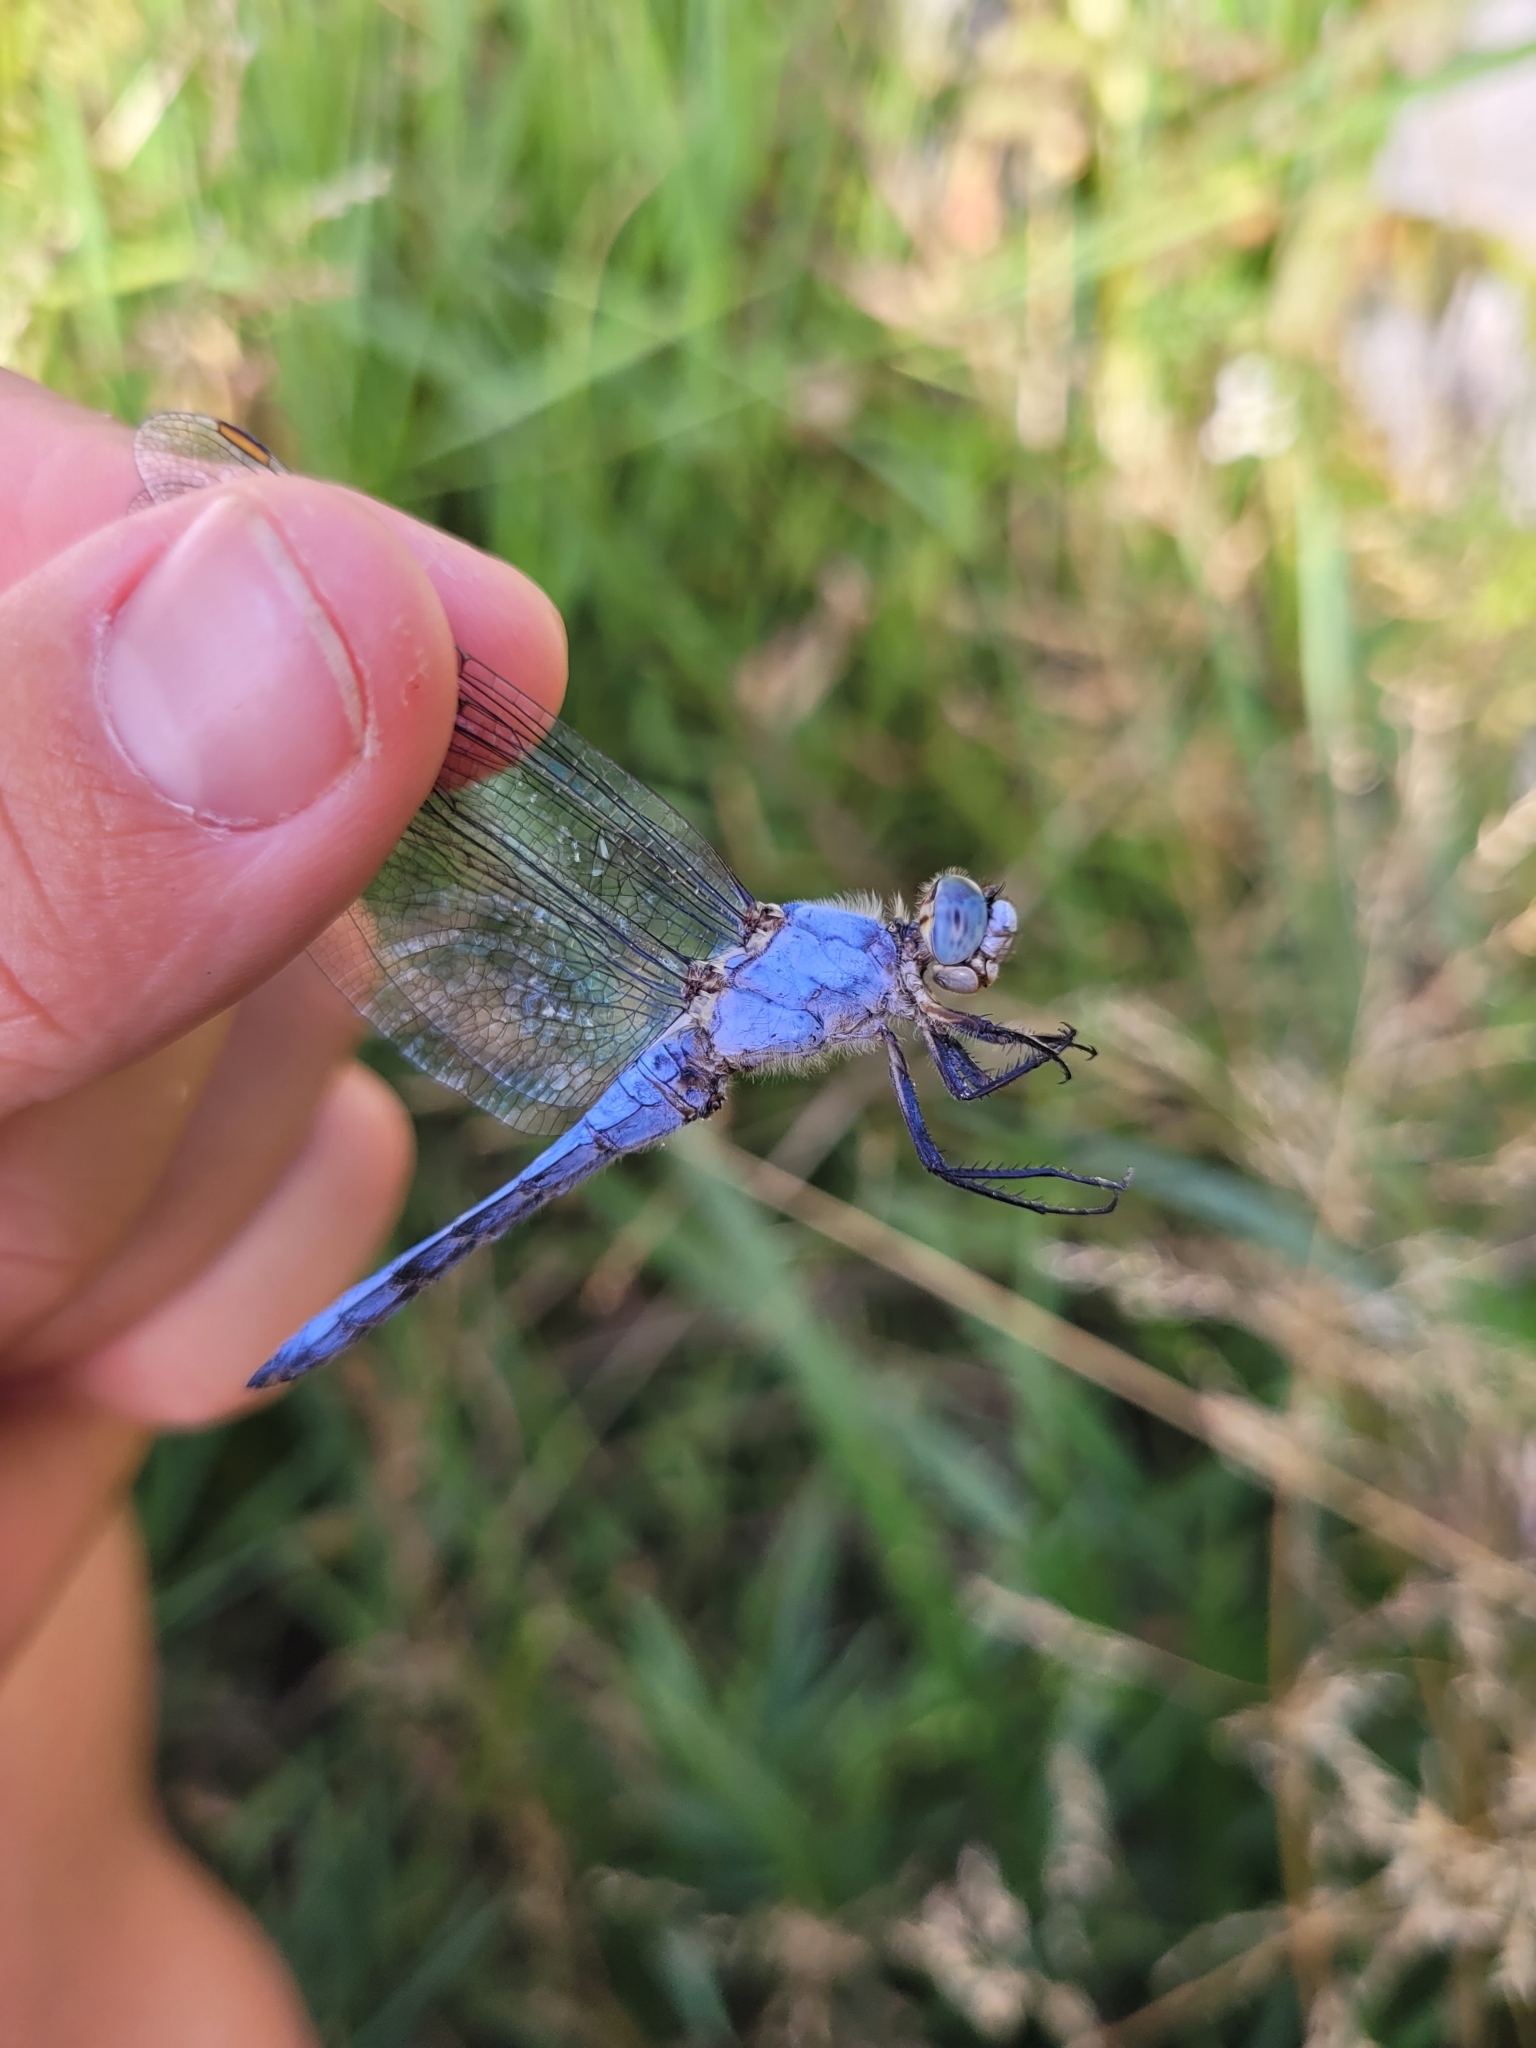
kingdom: Animalia
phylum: Arthropoda
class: Insecta
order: Odonata
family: Libellulidae
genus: Orthetrum
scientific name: Orthetrum brunneum
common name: Southern skimmer
